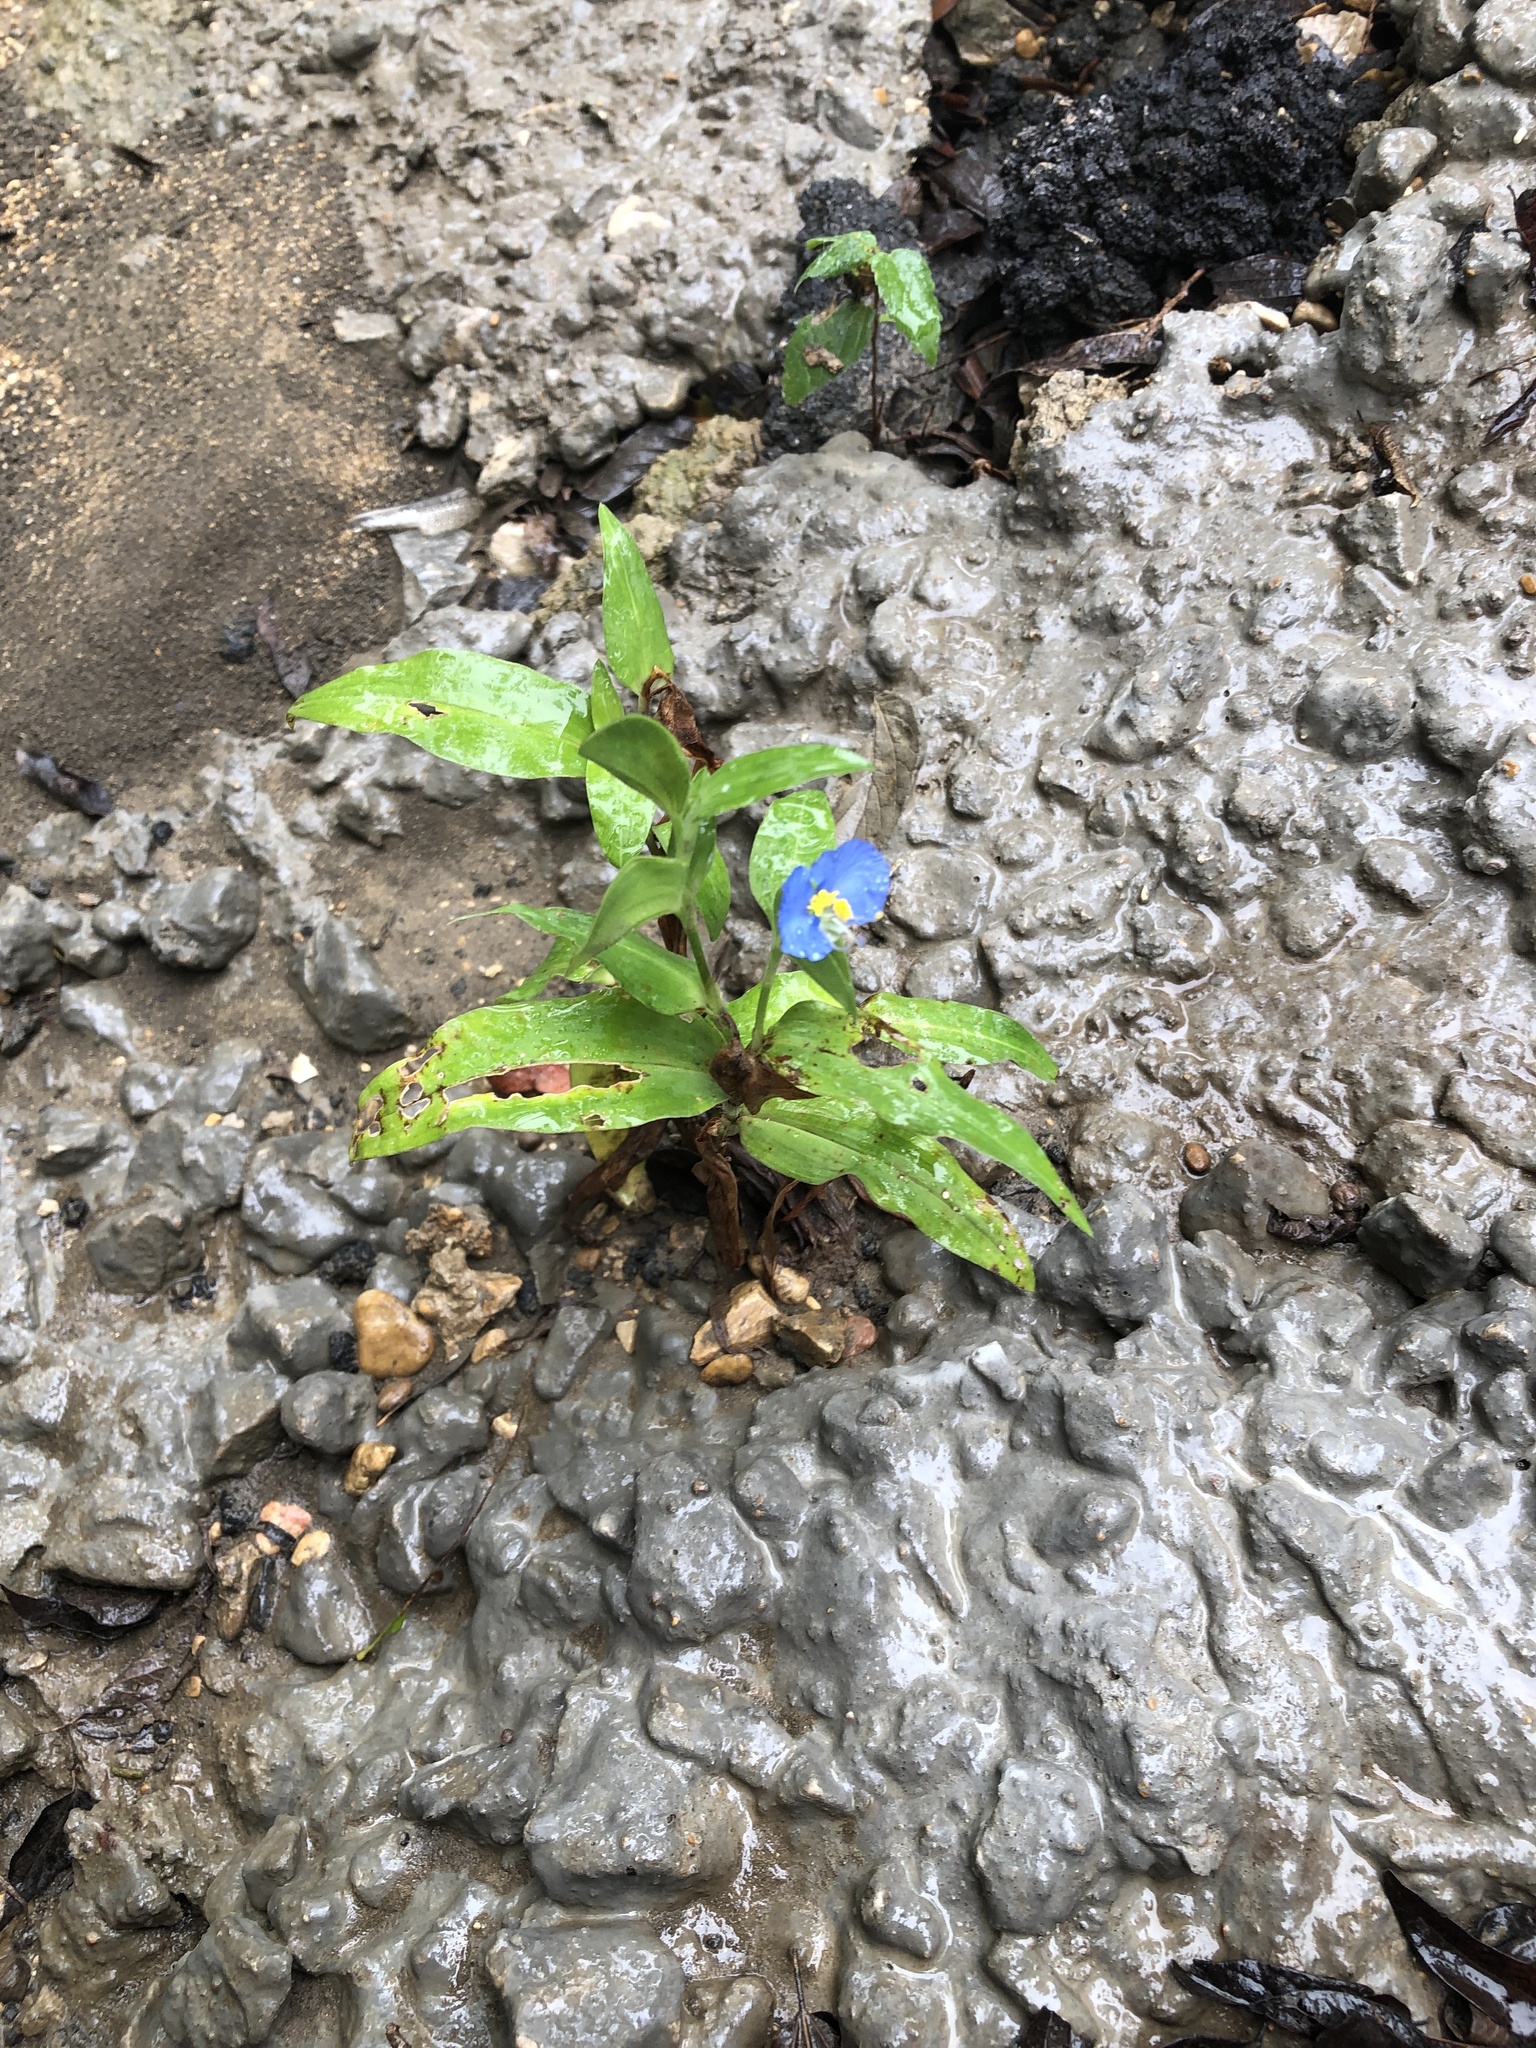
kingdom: Plantae
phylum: Tracheophyta
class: Liliopsida
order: Commelinales
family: Commelinaceae
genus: Commelina
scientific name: Commelina erecta
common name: Blousel blommetjie
